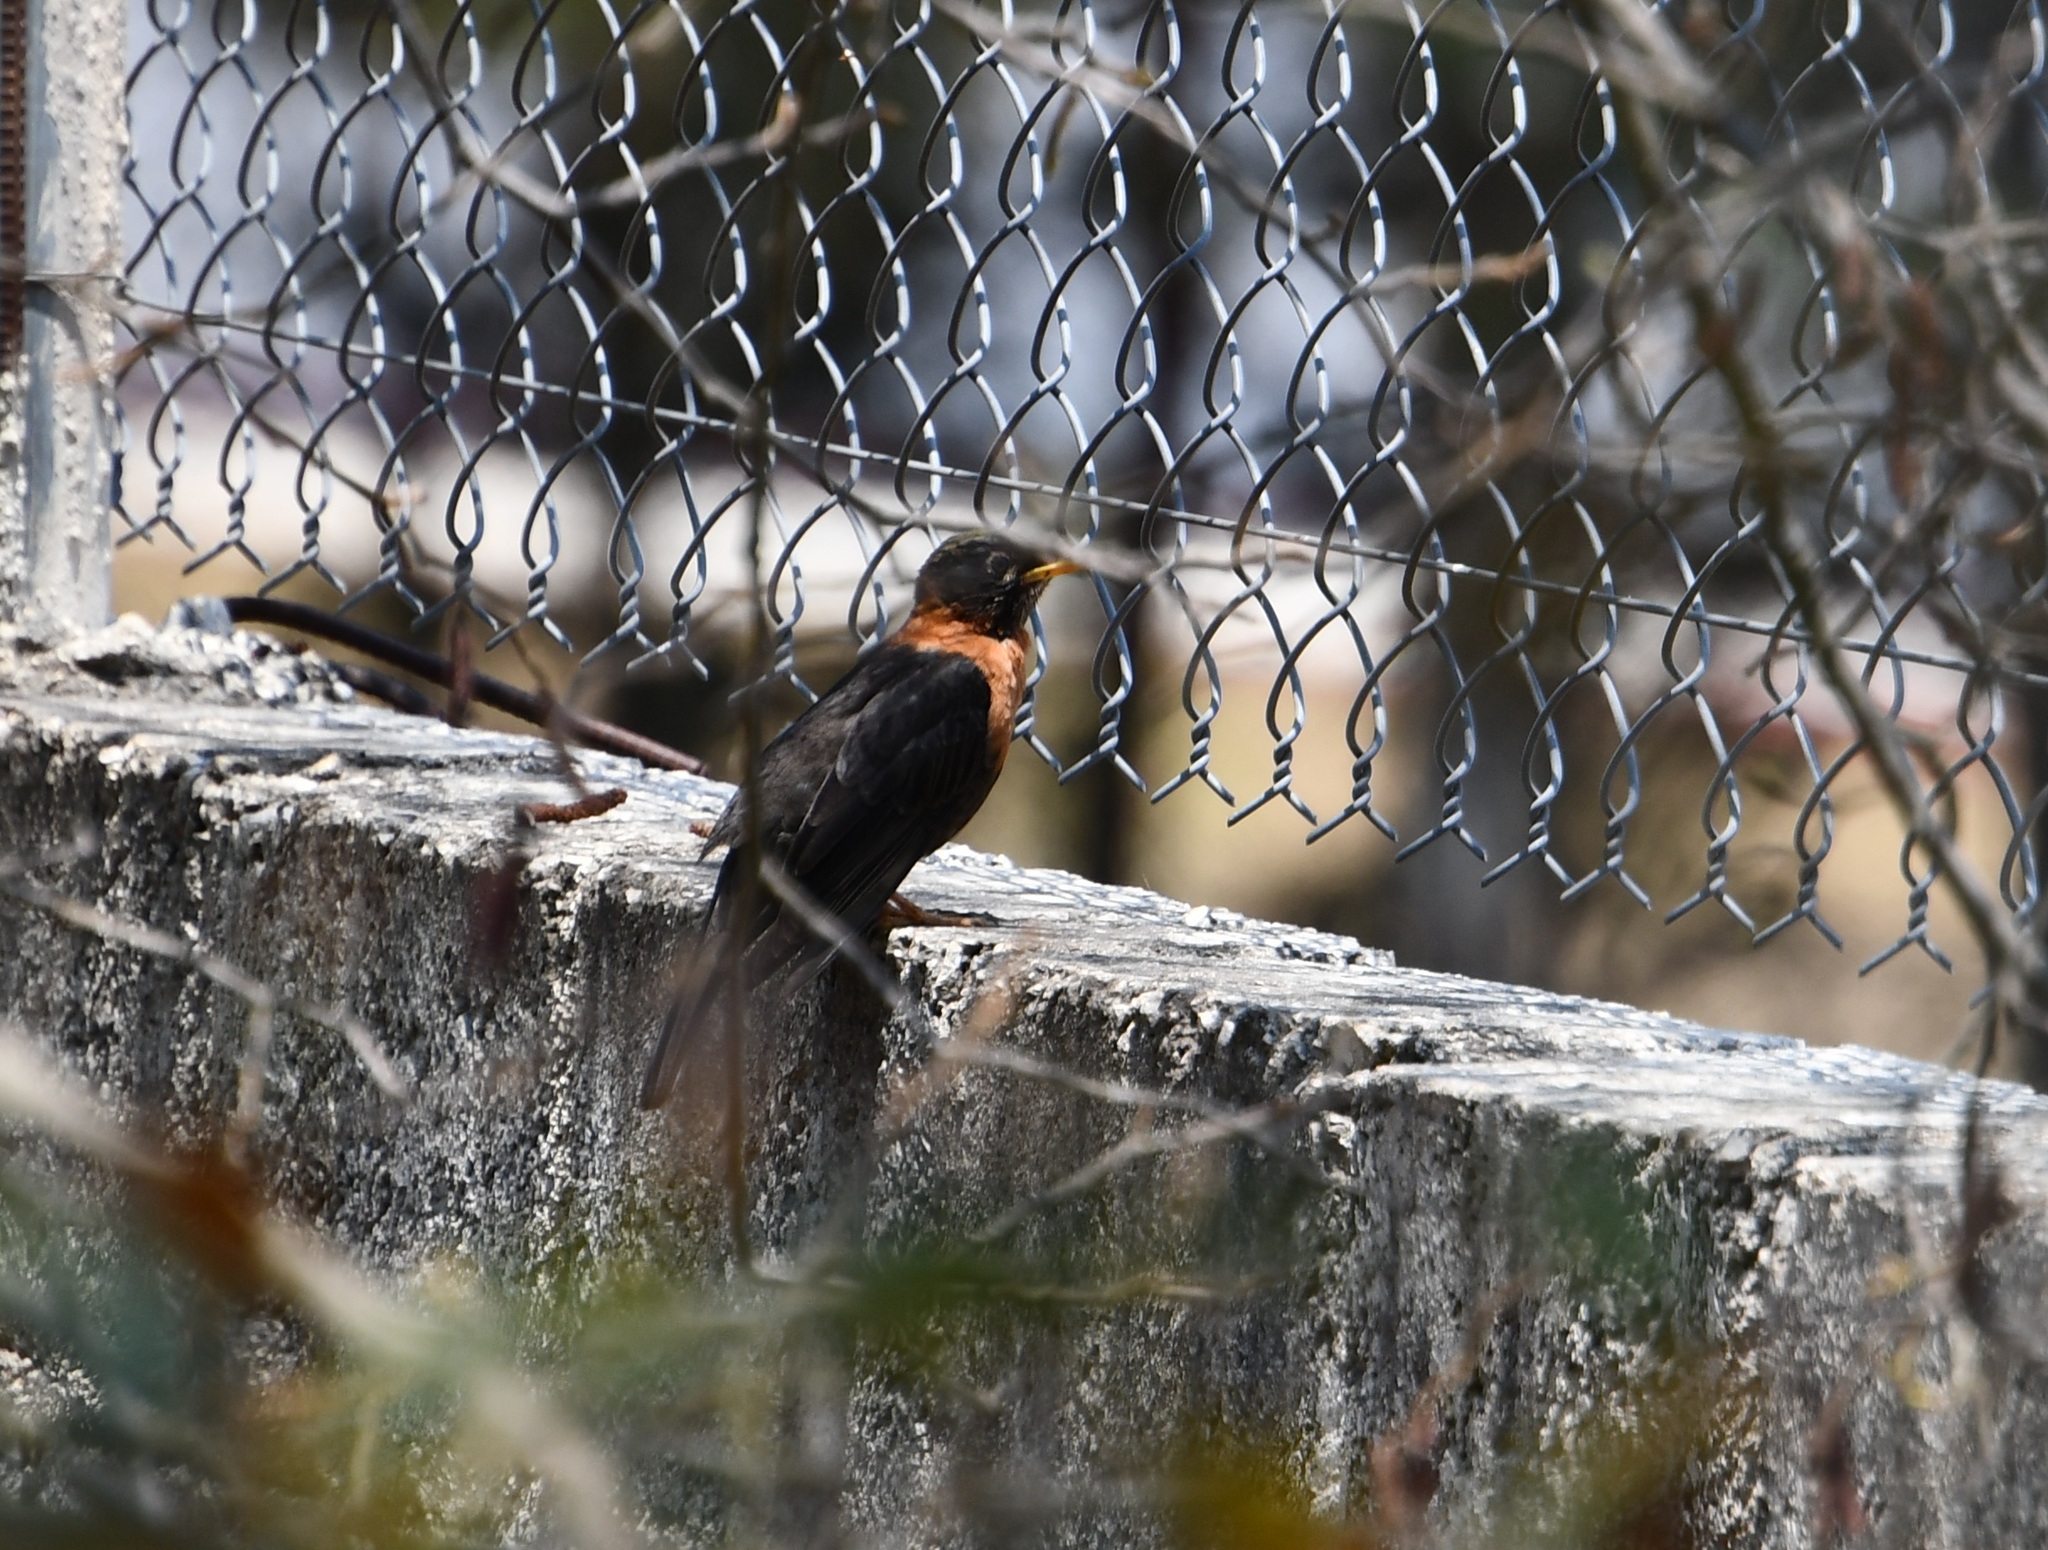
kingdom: Animalia
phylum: Chordata
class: Aves
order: Passeriformes
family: Turdidae
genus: Turdus
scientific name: Turdus rufitorques
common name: Rufous-collared thrush
